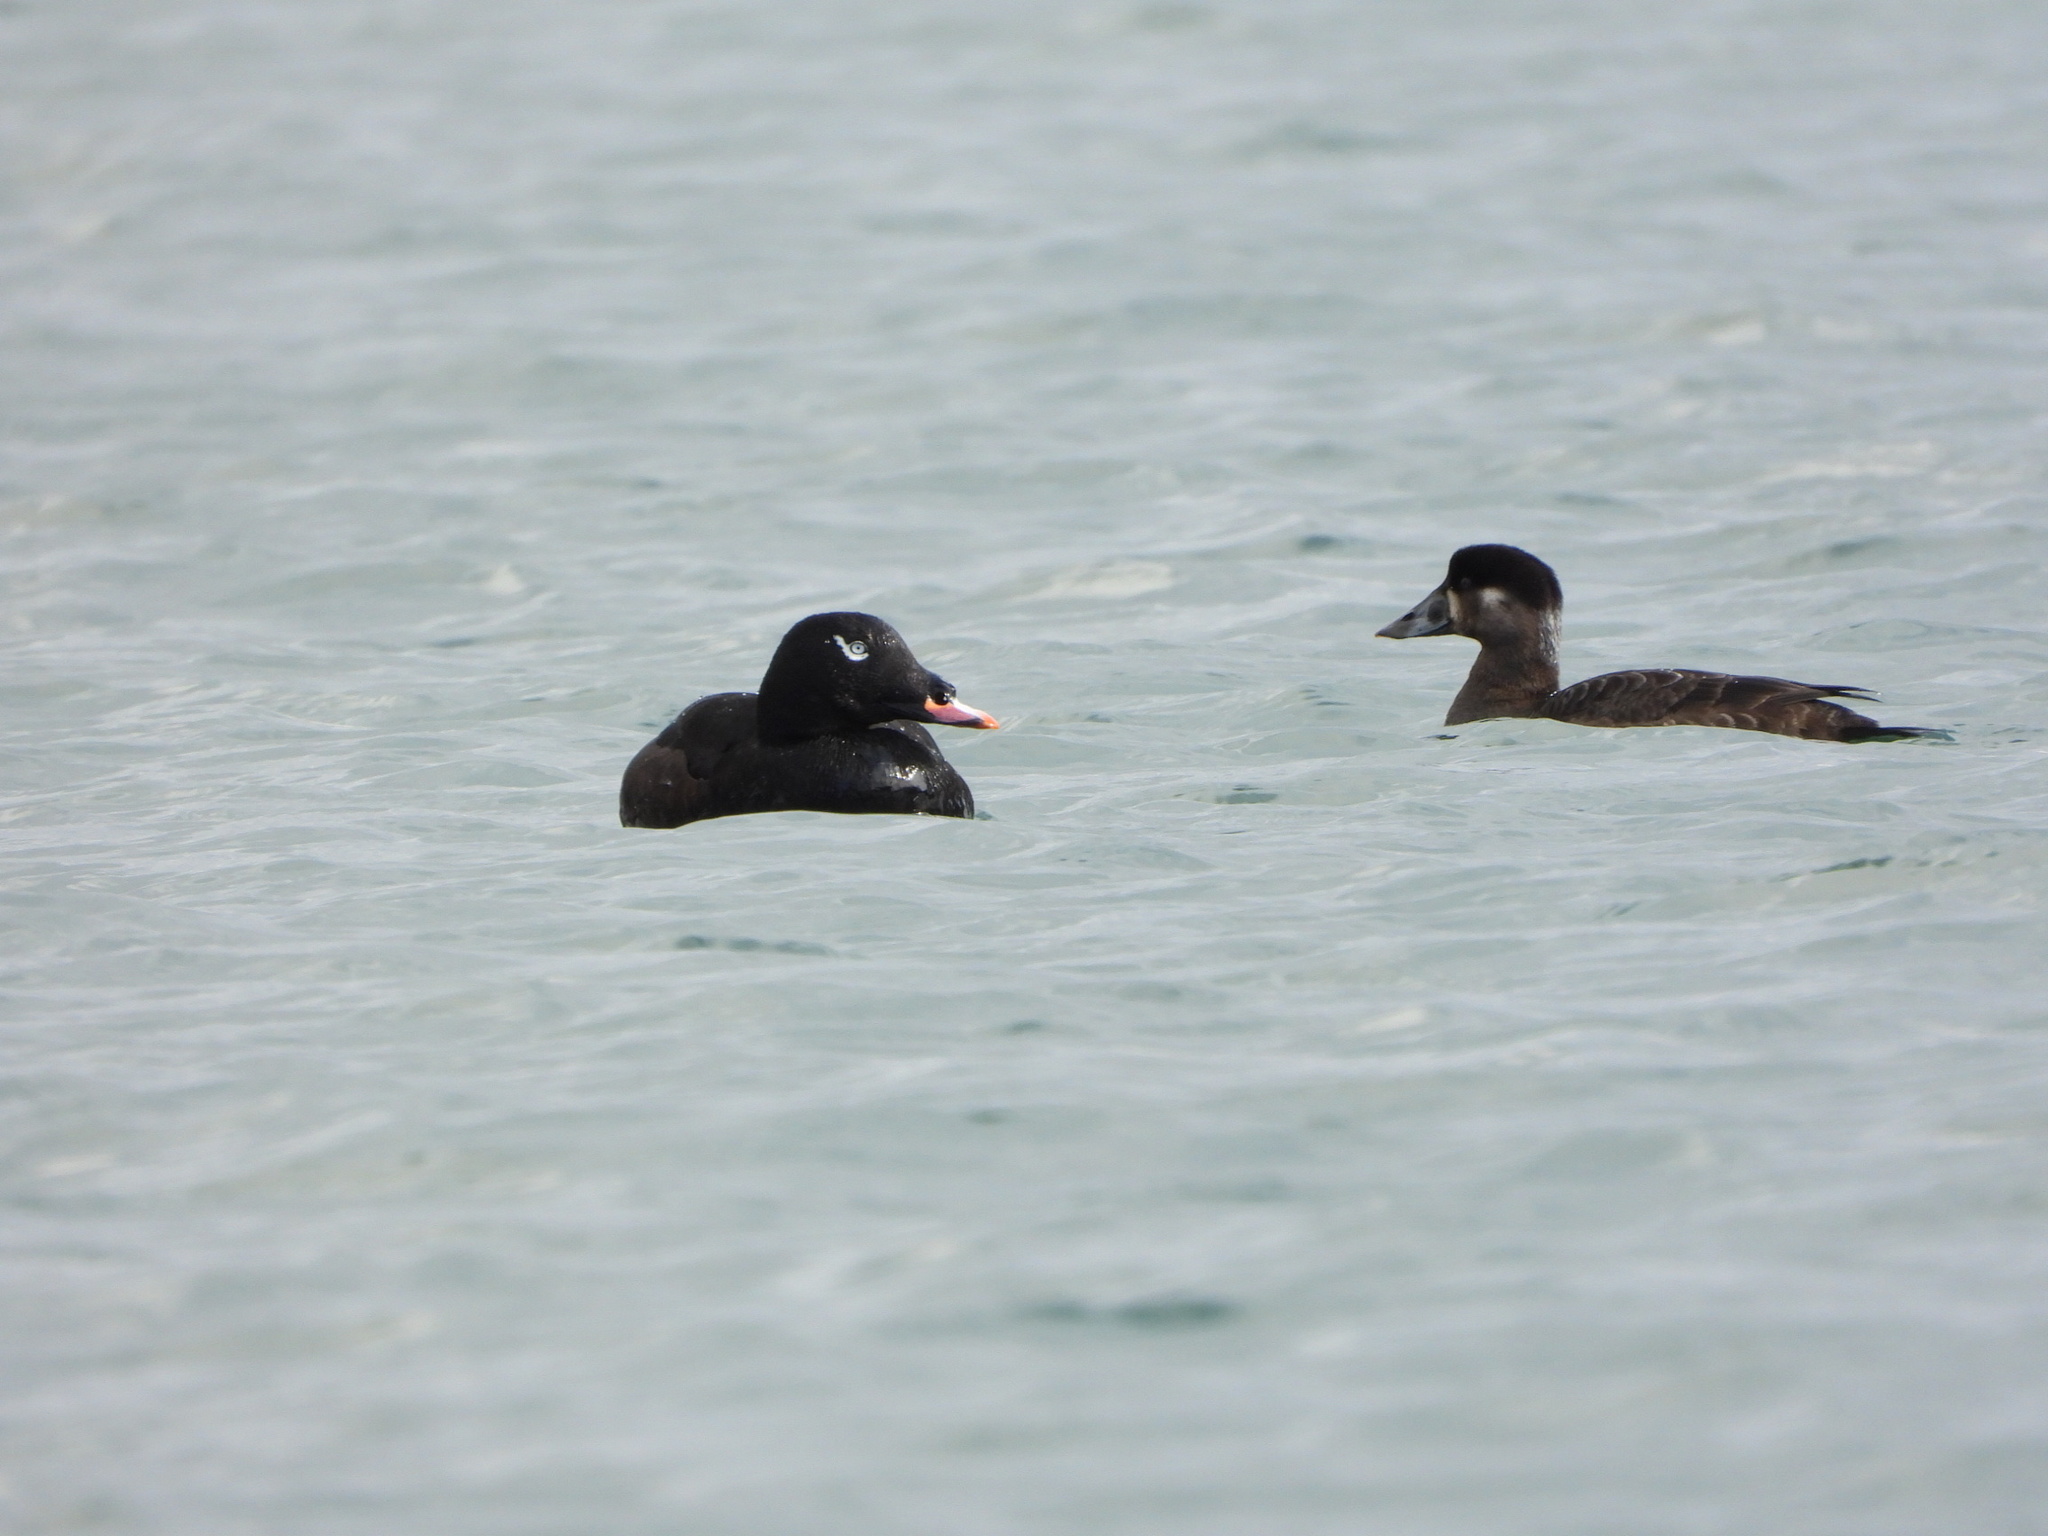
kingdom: Animalia
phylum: Chordata
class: Aves
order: Anseriformes
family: Anatidae
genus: Melanitta
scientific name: Melanitta deglandi
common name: White-winged scoter
